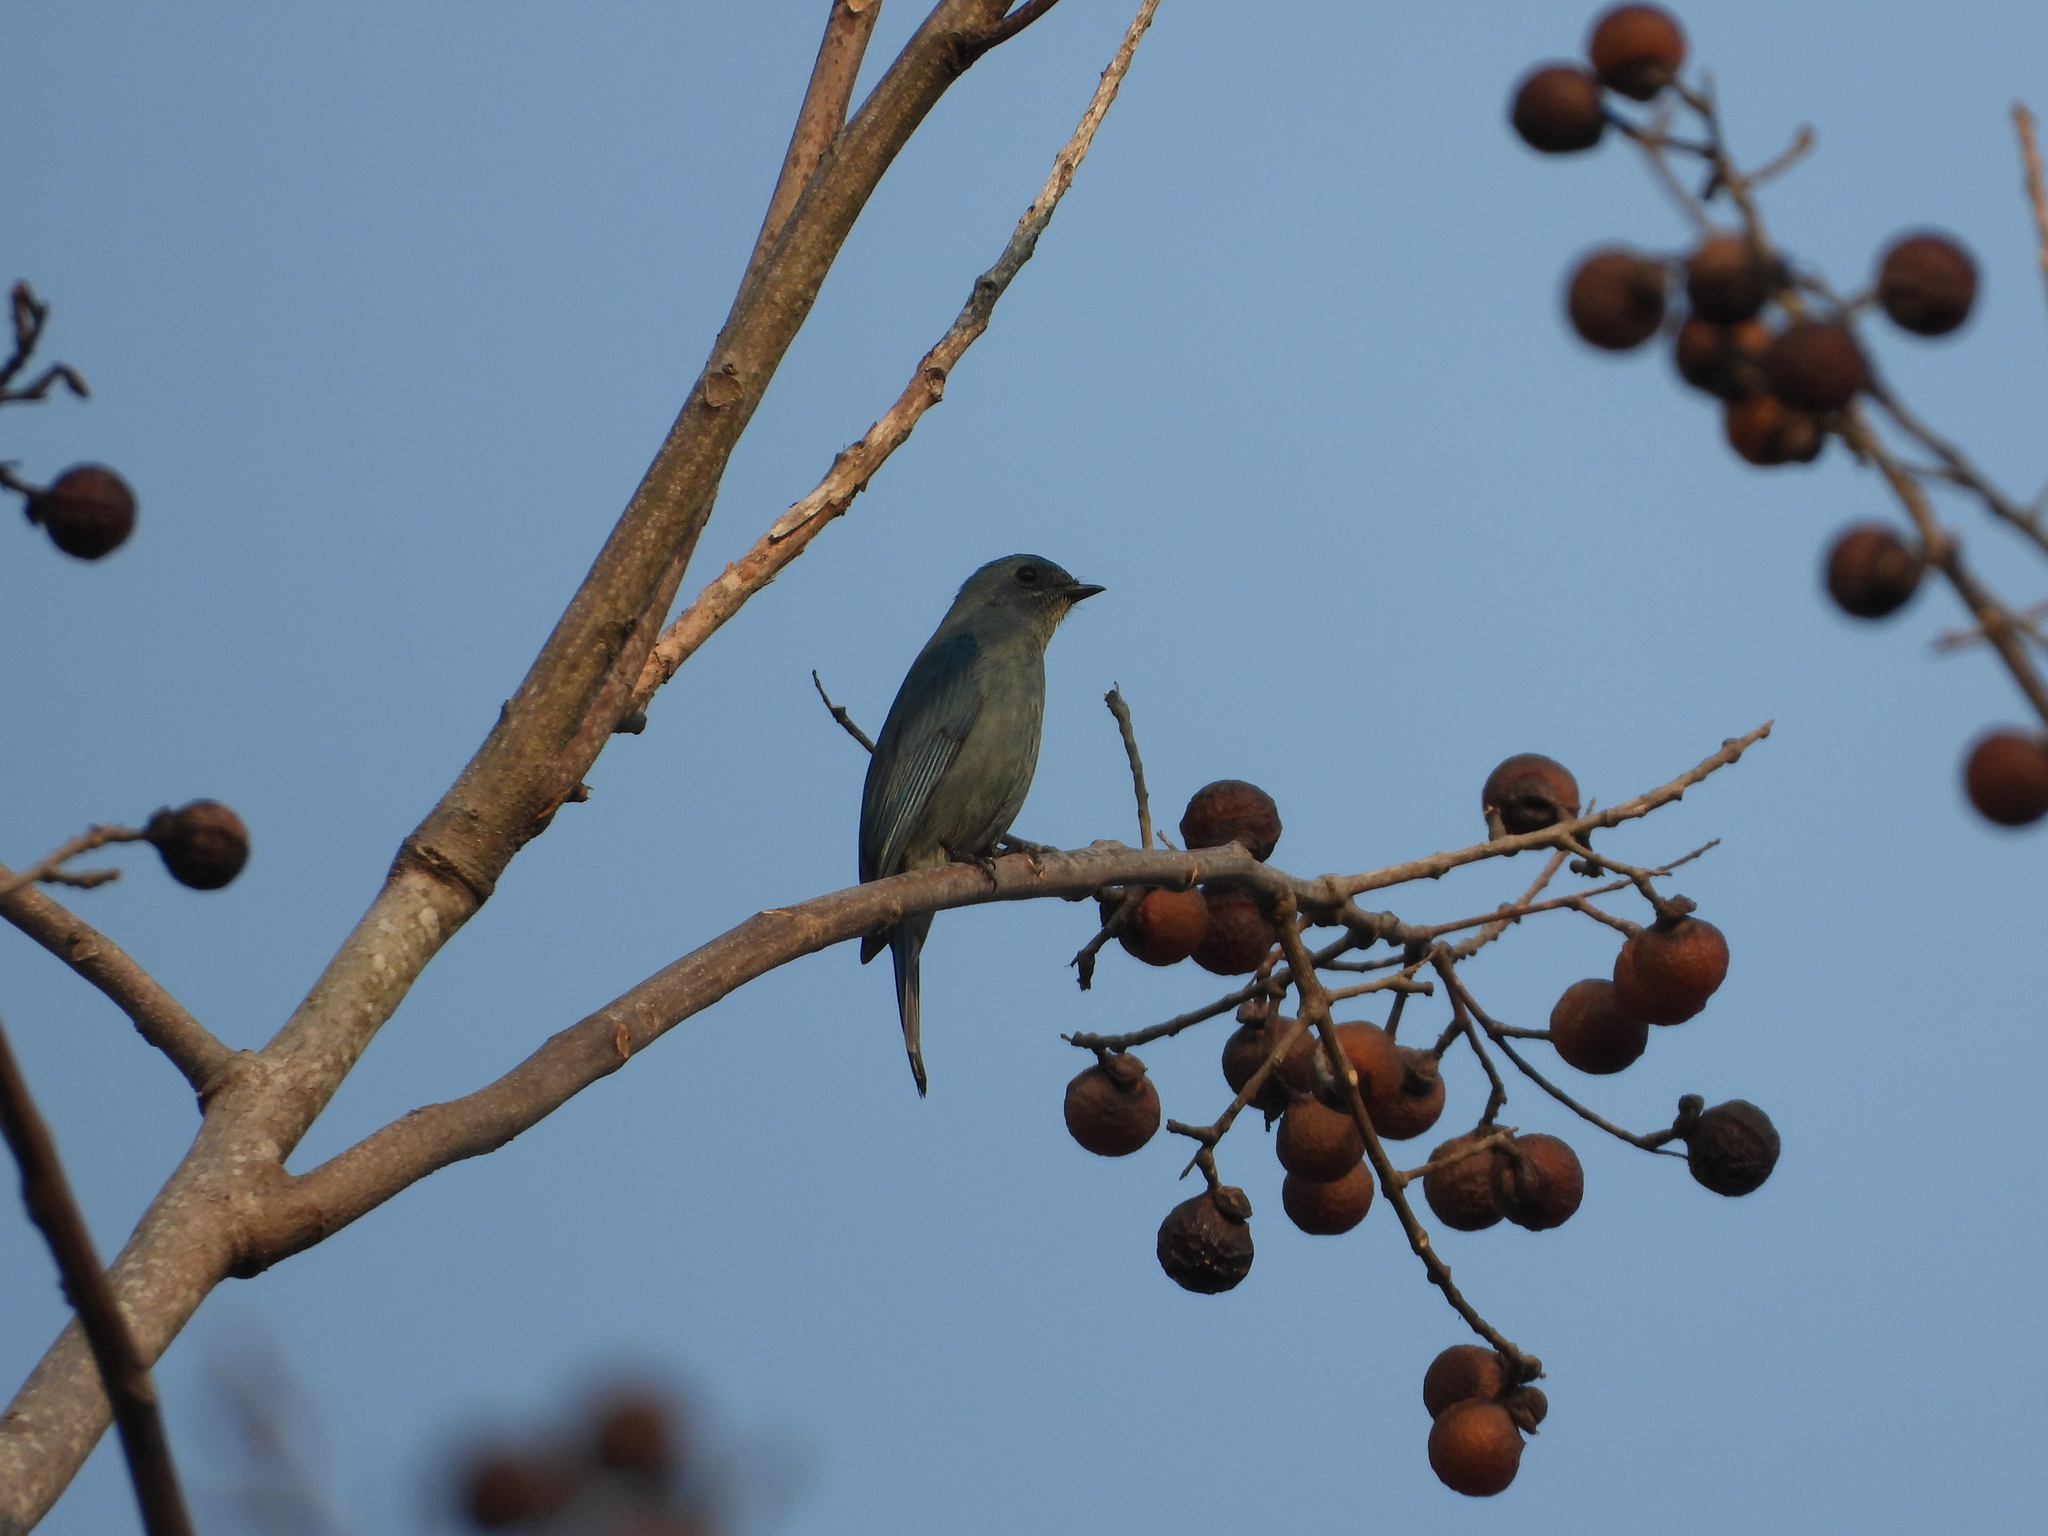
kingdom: Animalia
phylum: Chordata
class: Aves
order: Passeriformes
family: Muscicapidae
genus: Eumyias
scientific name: Eumyias thalassinus
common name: Verditer flycatcher
